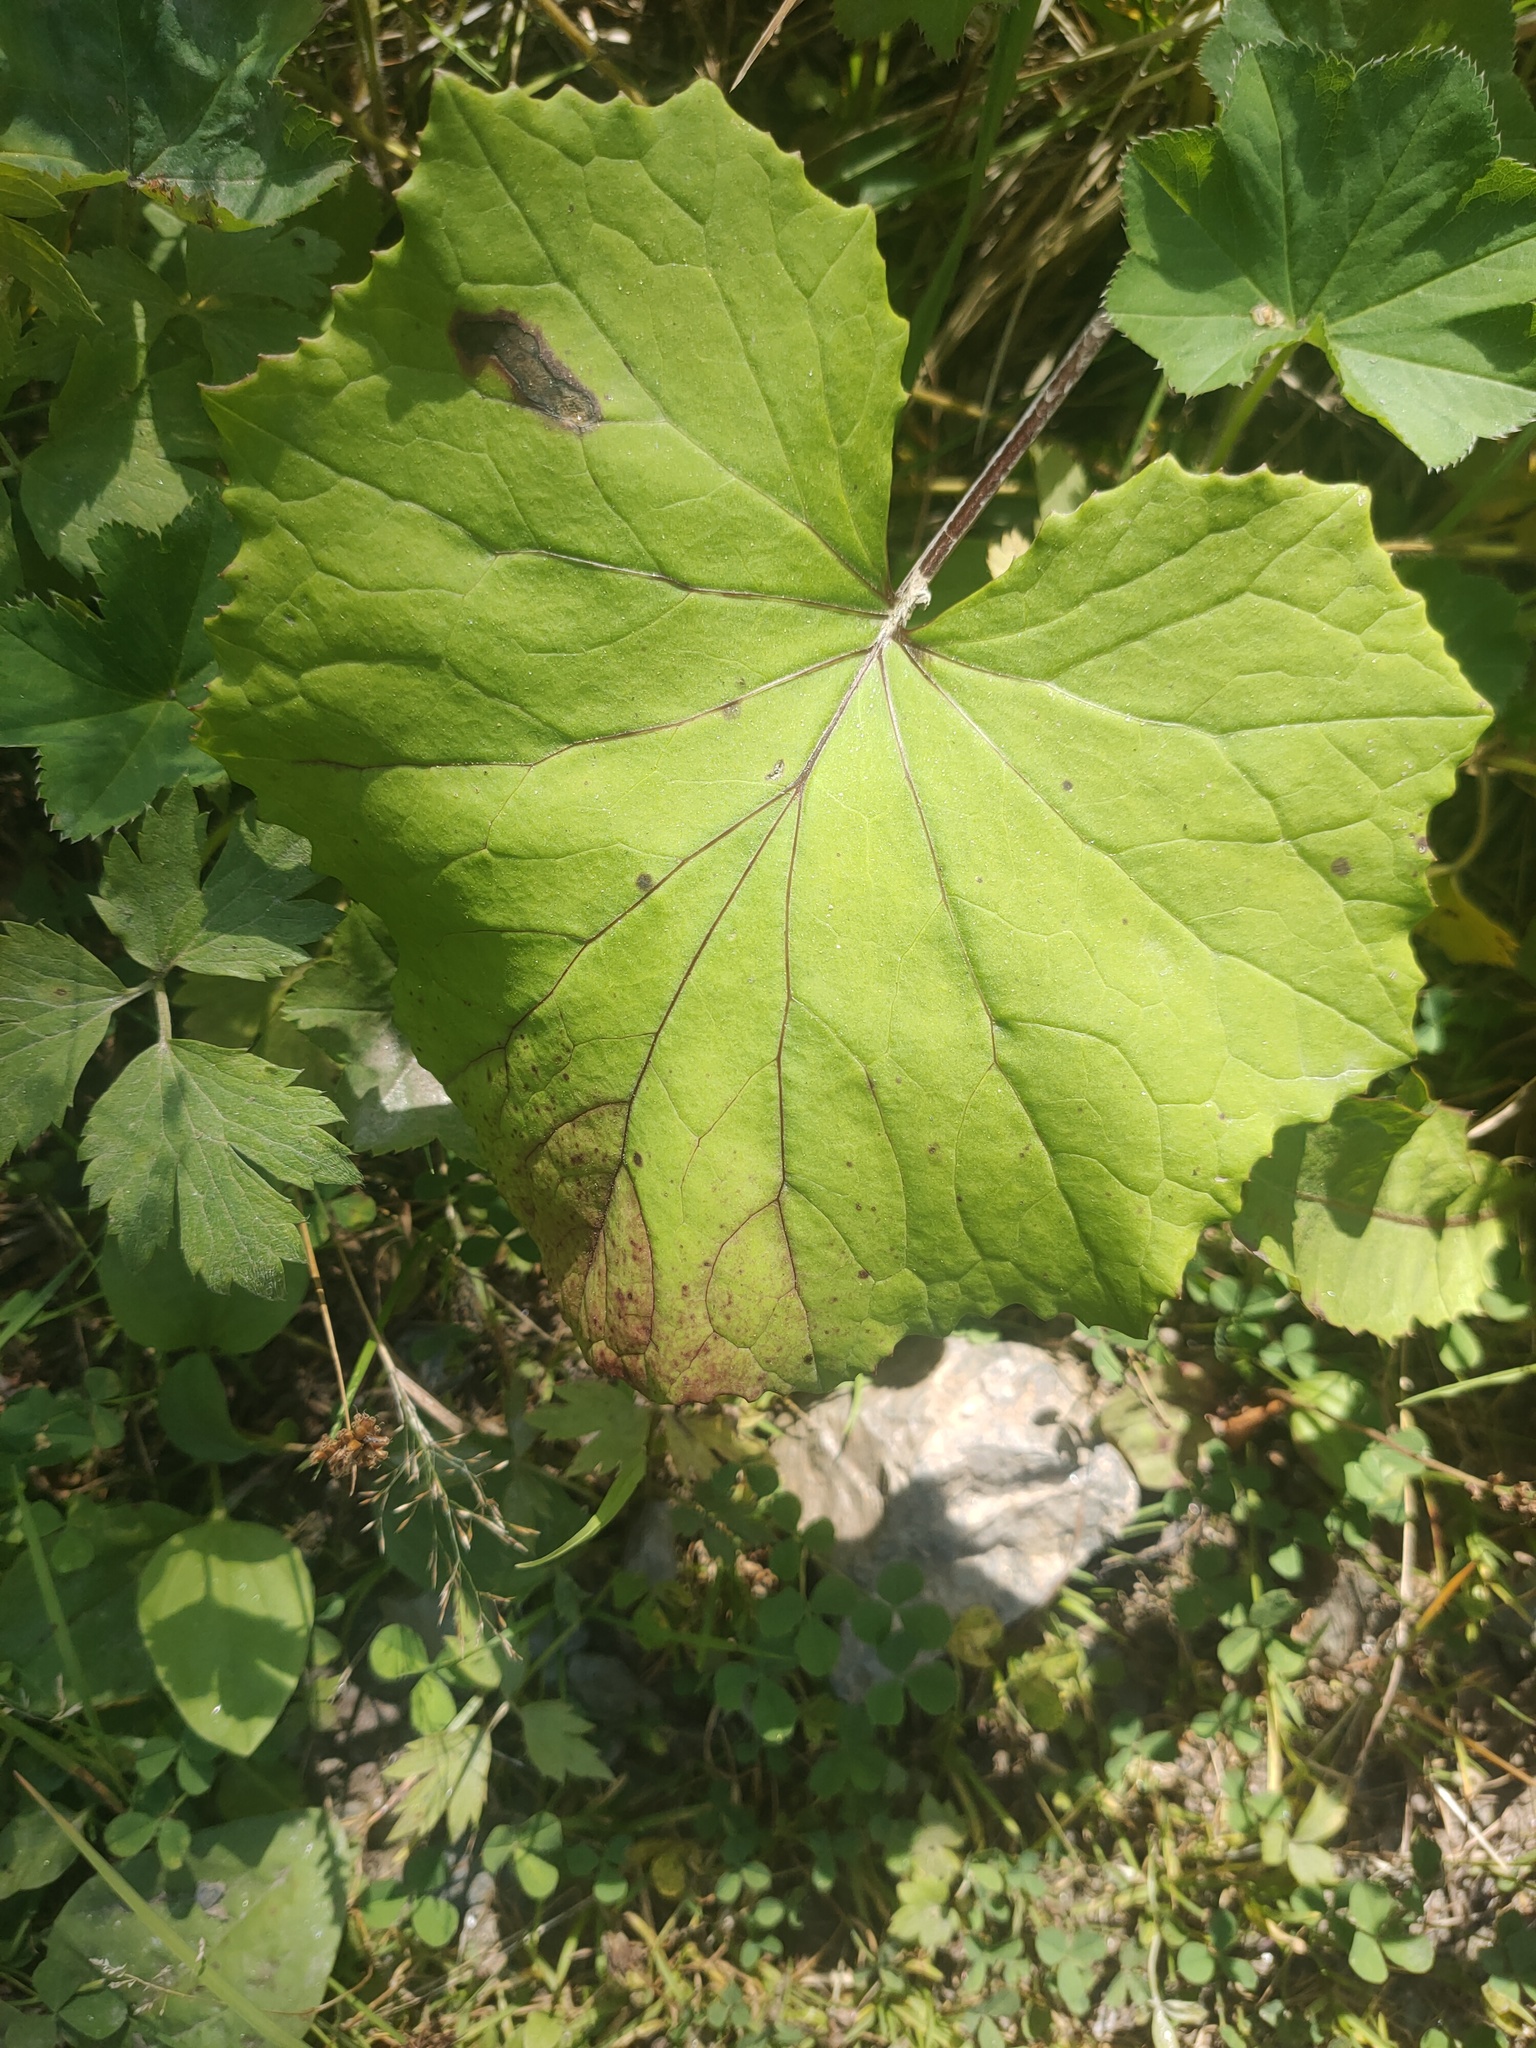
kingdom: Plantae
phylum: Tracheophyta
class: Magnoliopsida
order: Asterales
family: Asteraceae
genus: Tussilago
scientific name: Tussilago farfara
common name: Coltsfoot
